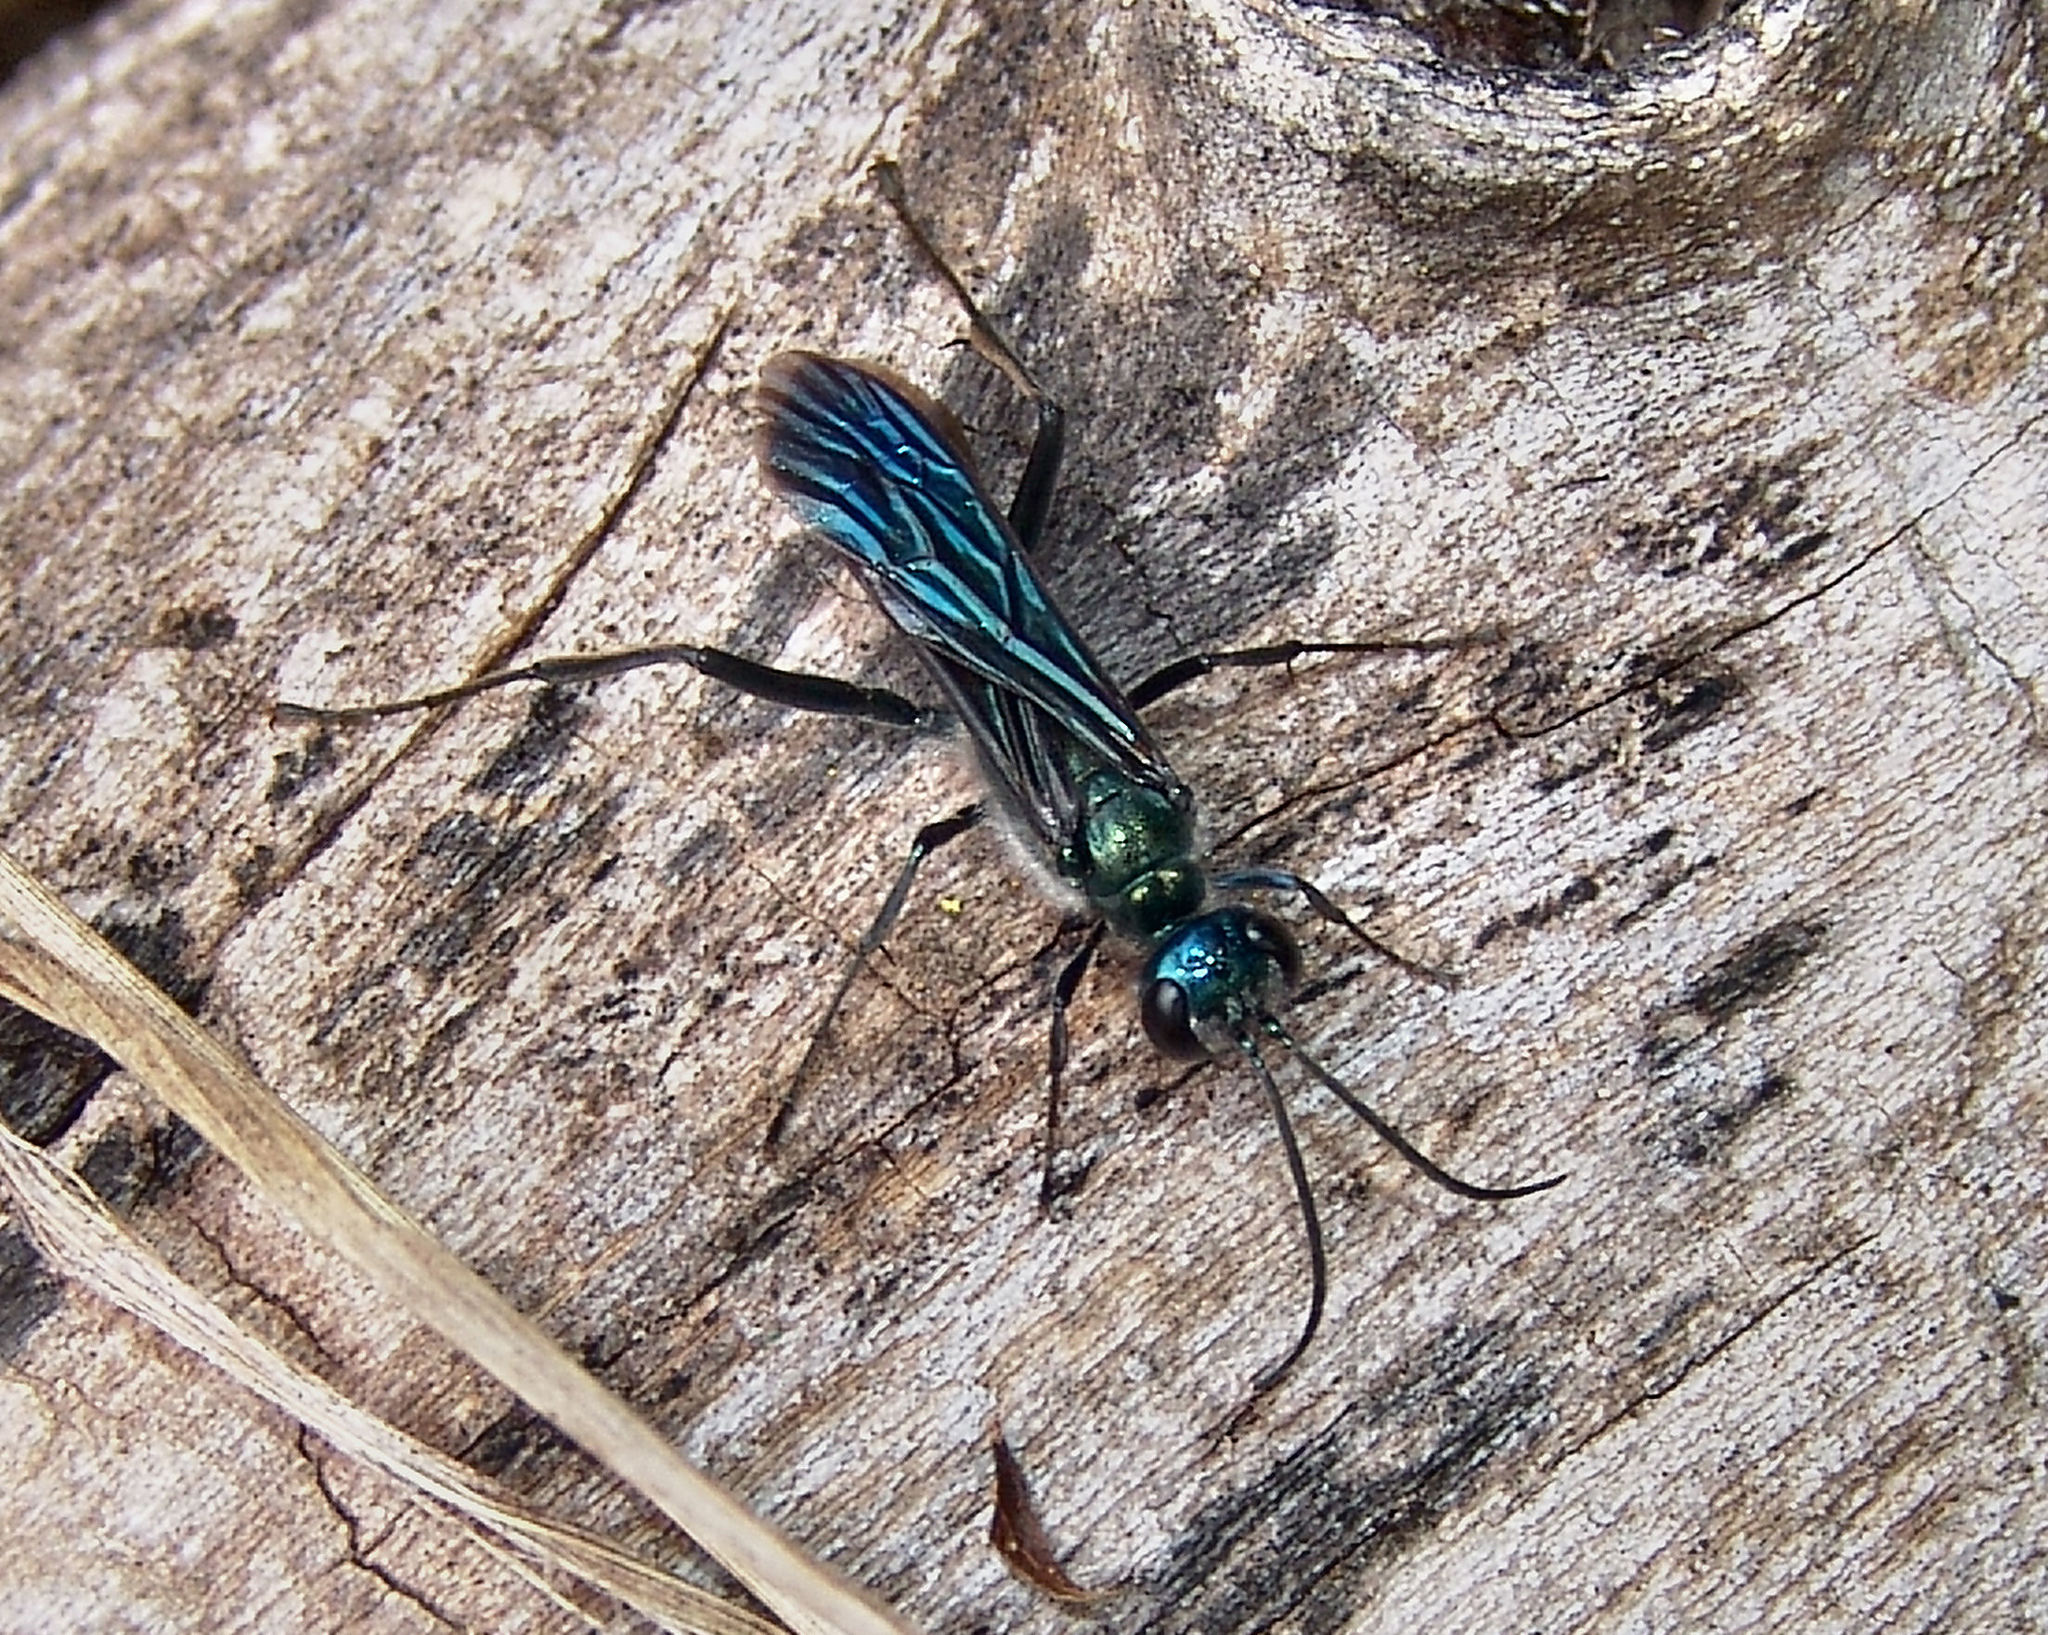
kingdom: Animalia
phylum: Arthropoda
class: Insecta
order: Hymenoptera
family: Sphecidae
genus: Chalybion
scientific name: Chalybion zimmermanni
